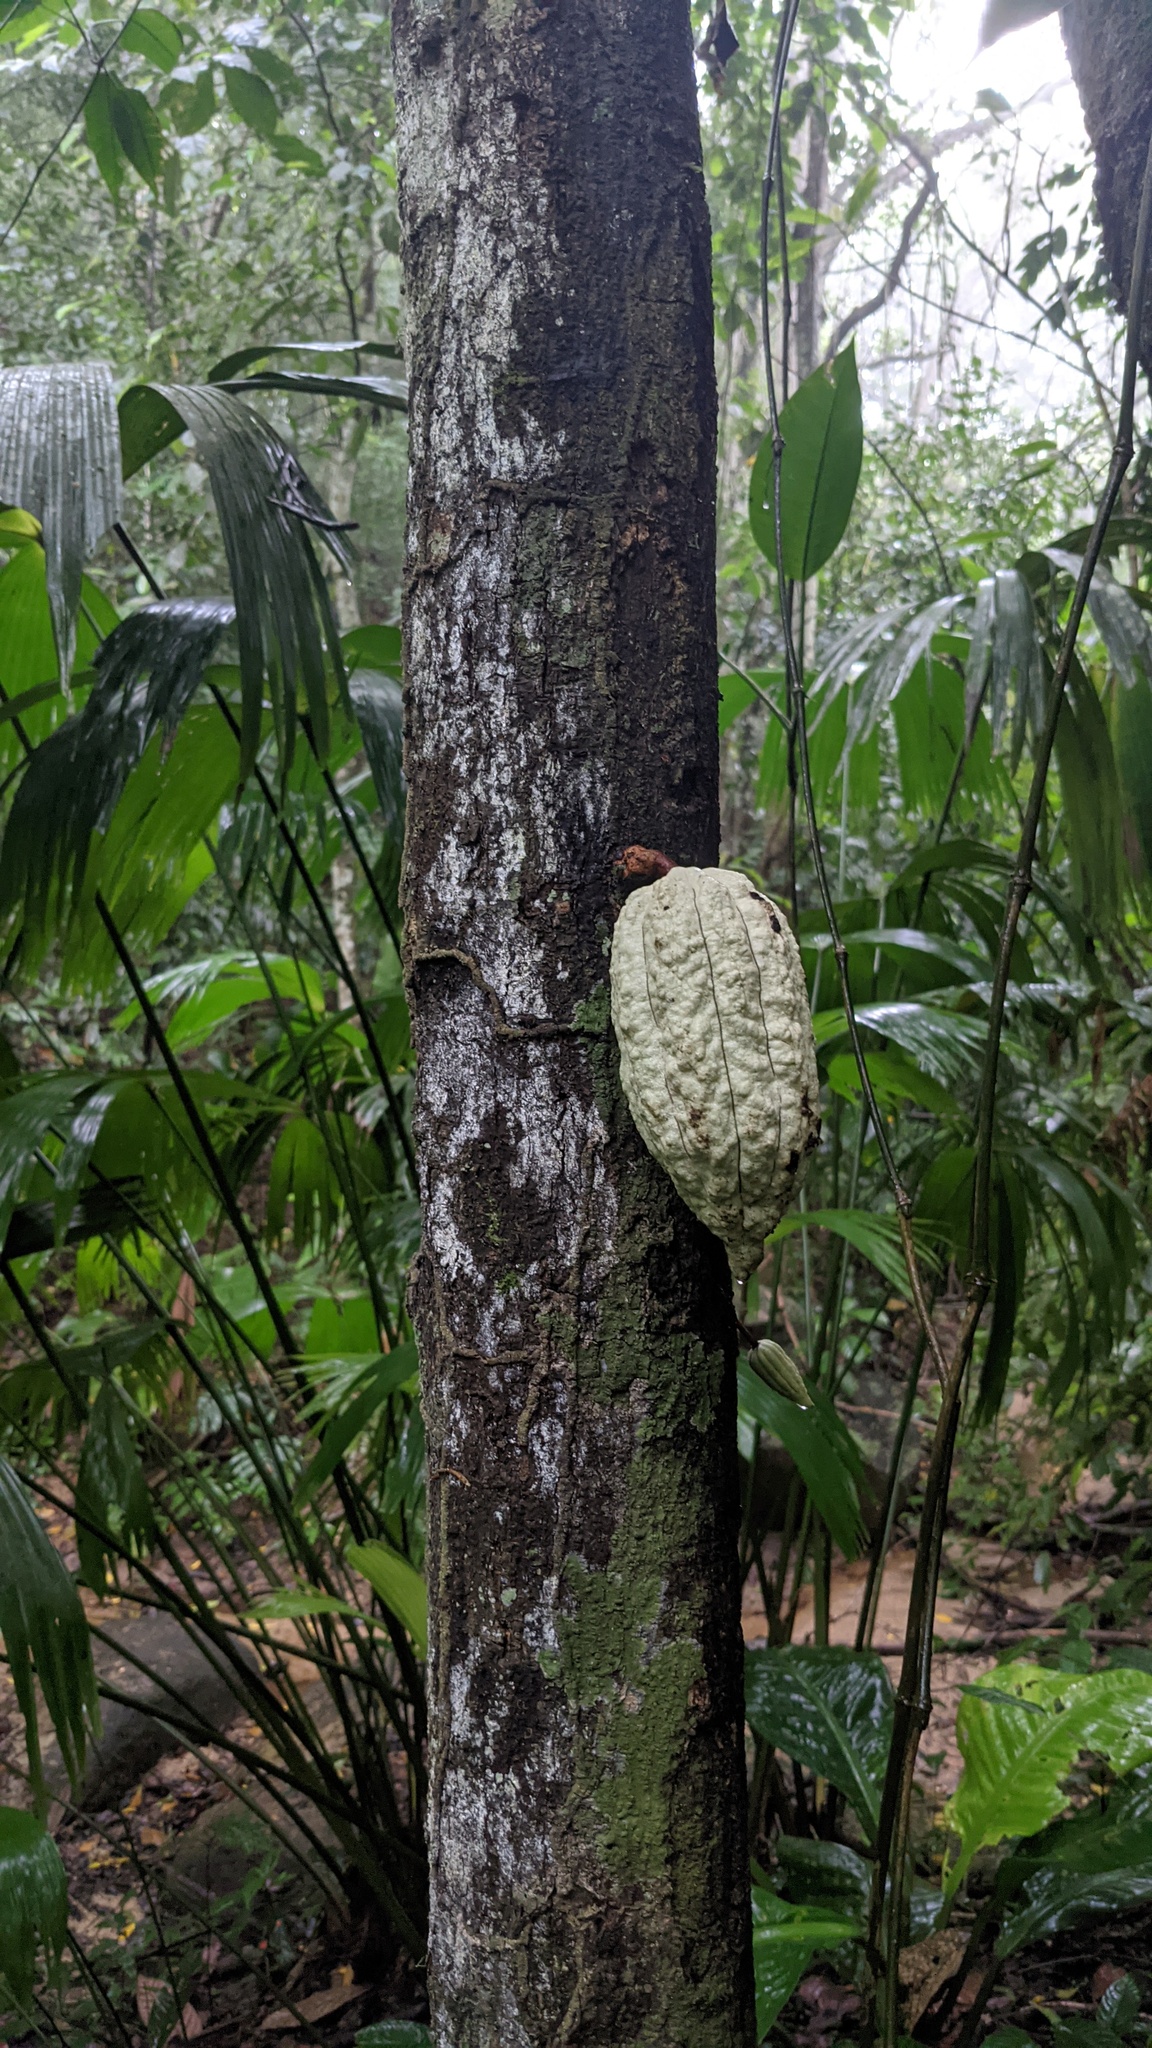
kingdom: Plantae
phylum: Tracheophyta
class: Magnoliopsida
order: Malvales
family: Malvaceae
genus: Theobroma
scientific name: Theobroma cacao
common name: Cocoa
